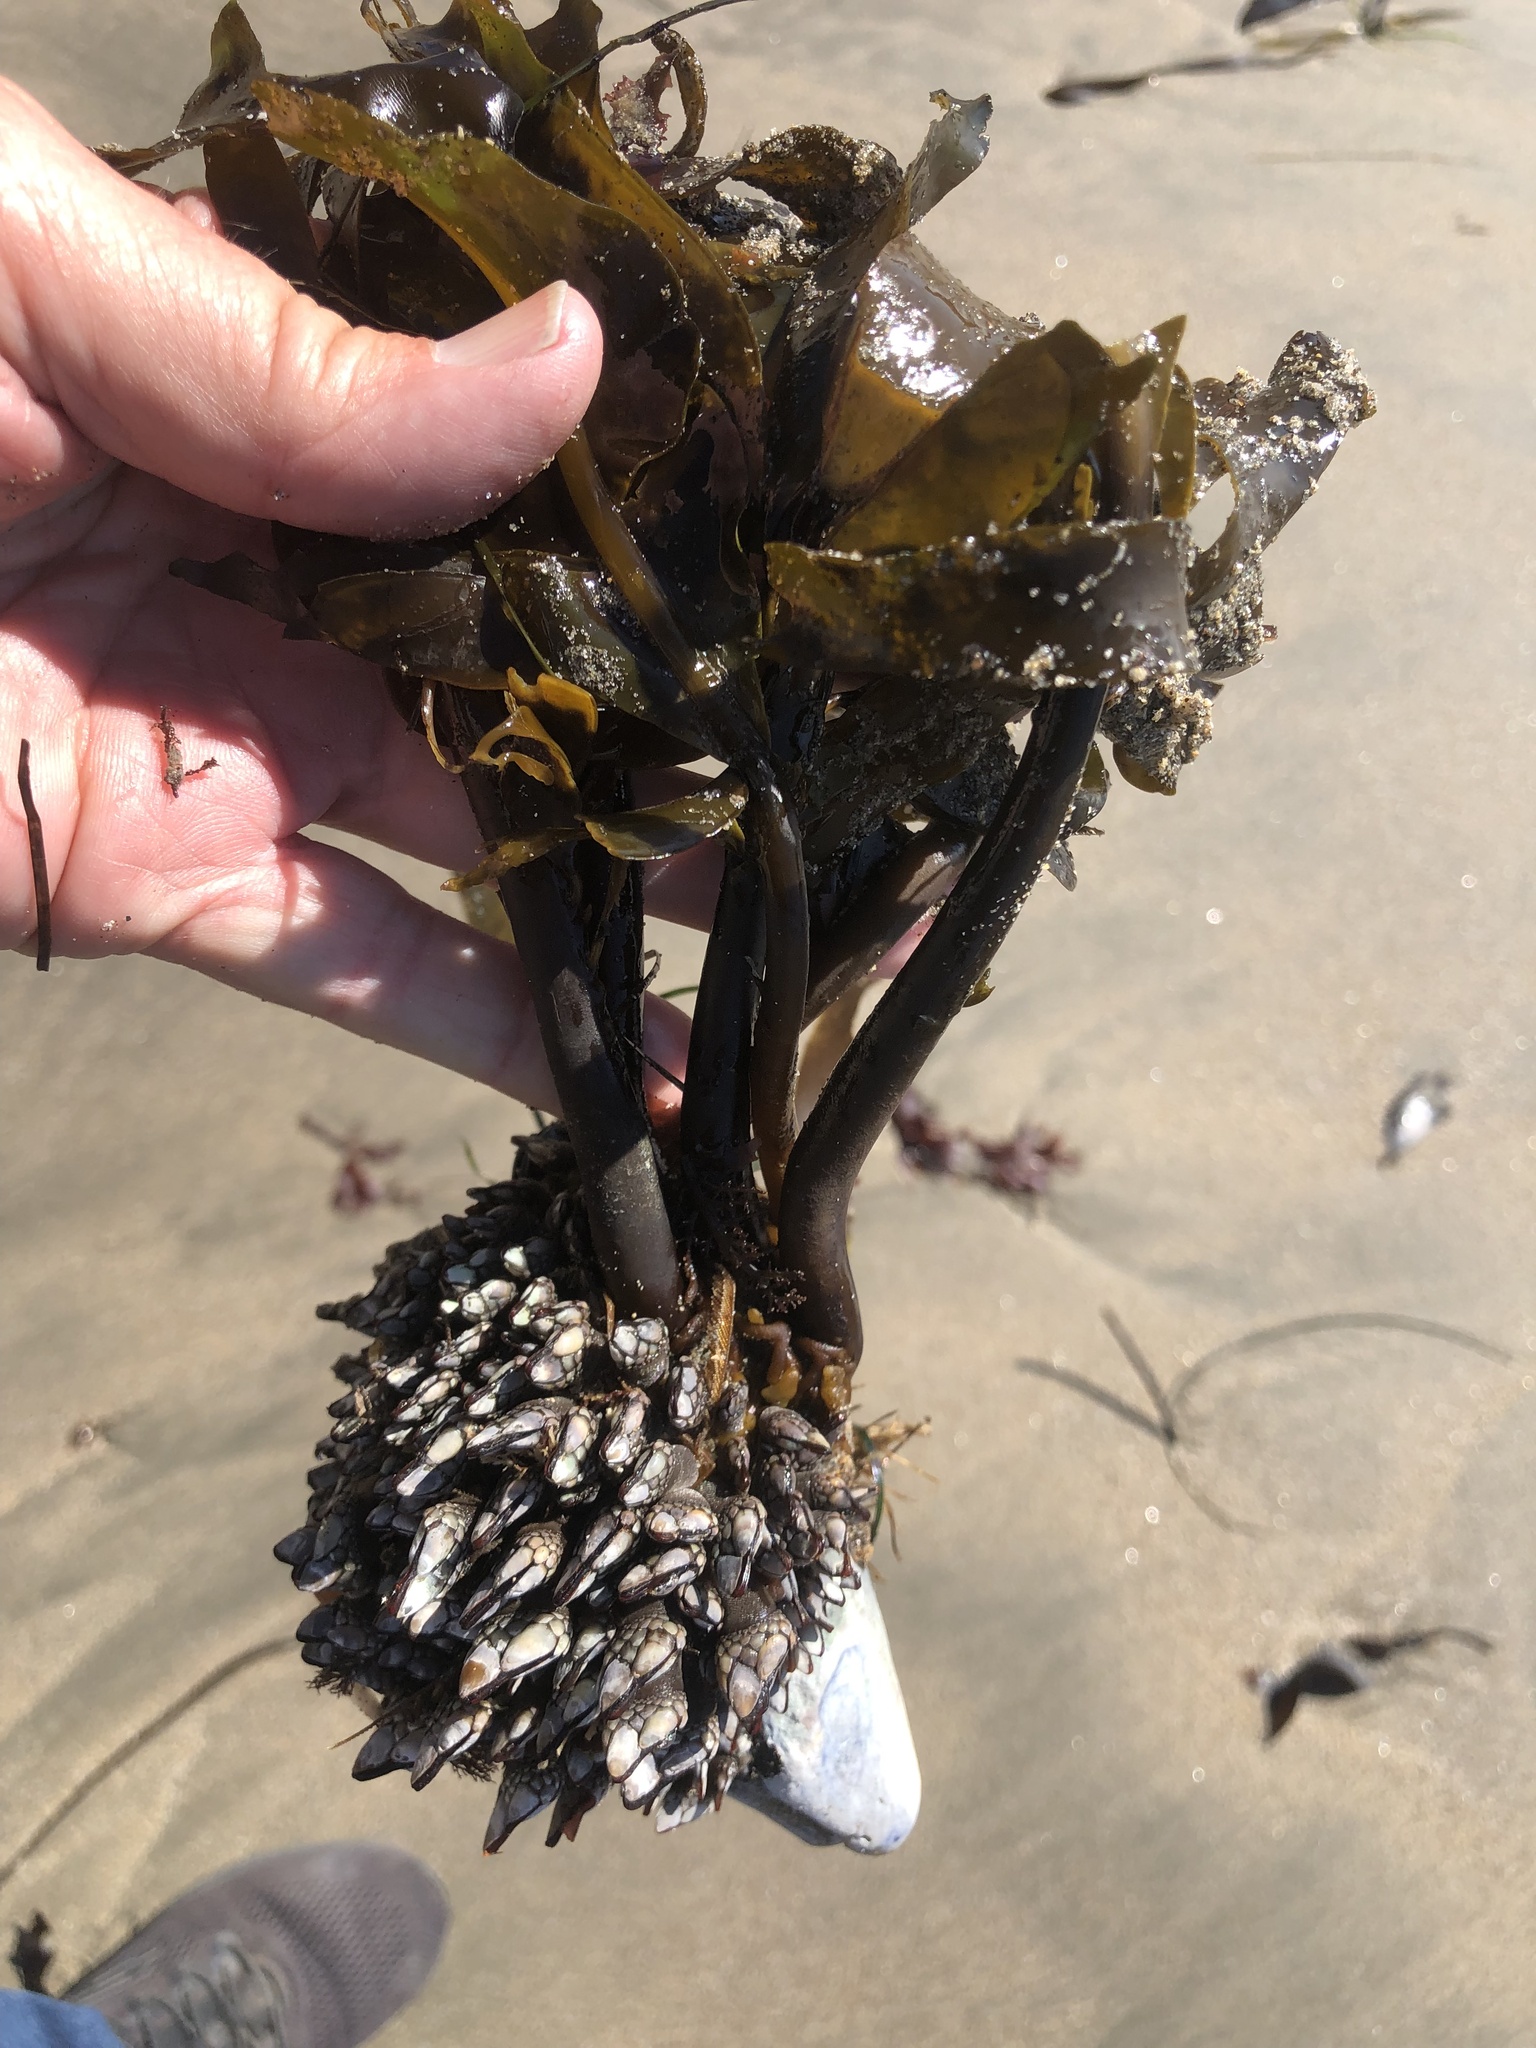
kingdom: Chromista
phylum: Ochrophyta
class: Phaeophyceae
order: Laminariales
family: Alariaceae
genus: Alaria
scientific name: Alaria marginata
